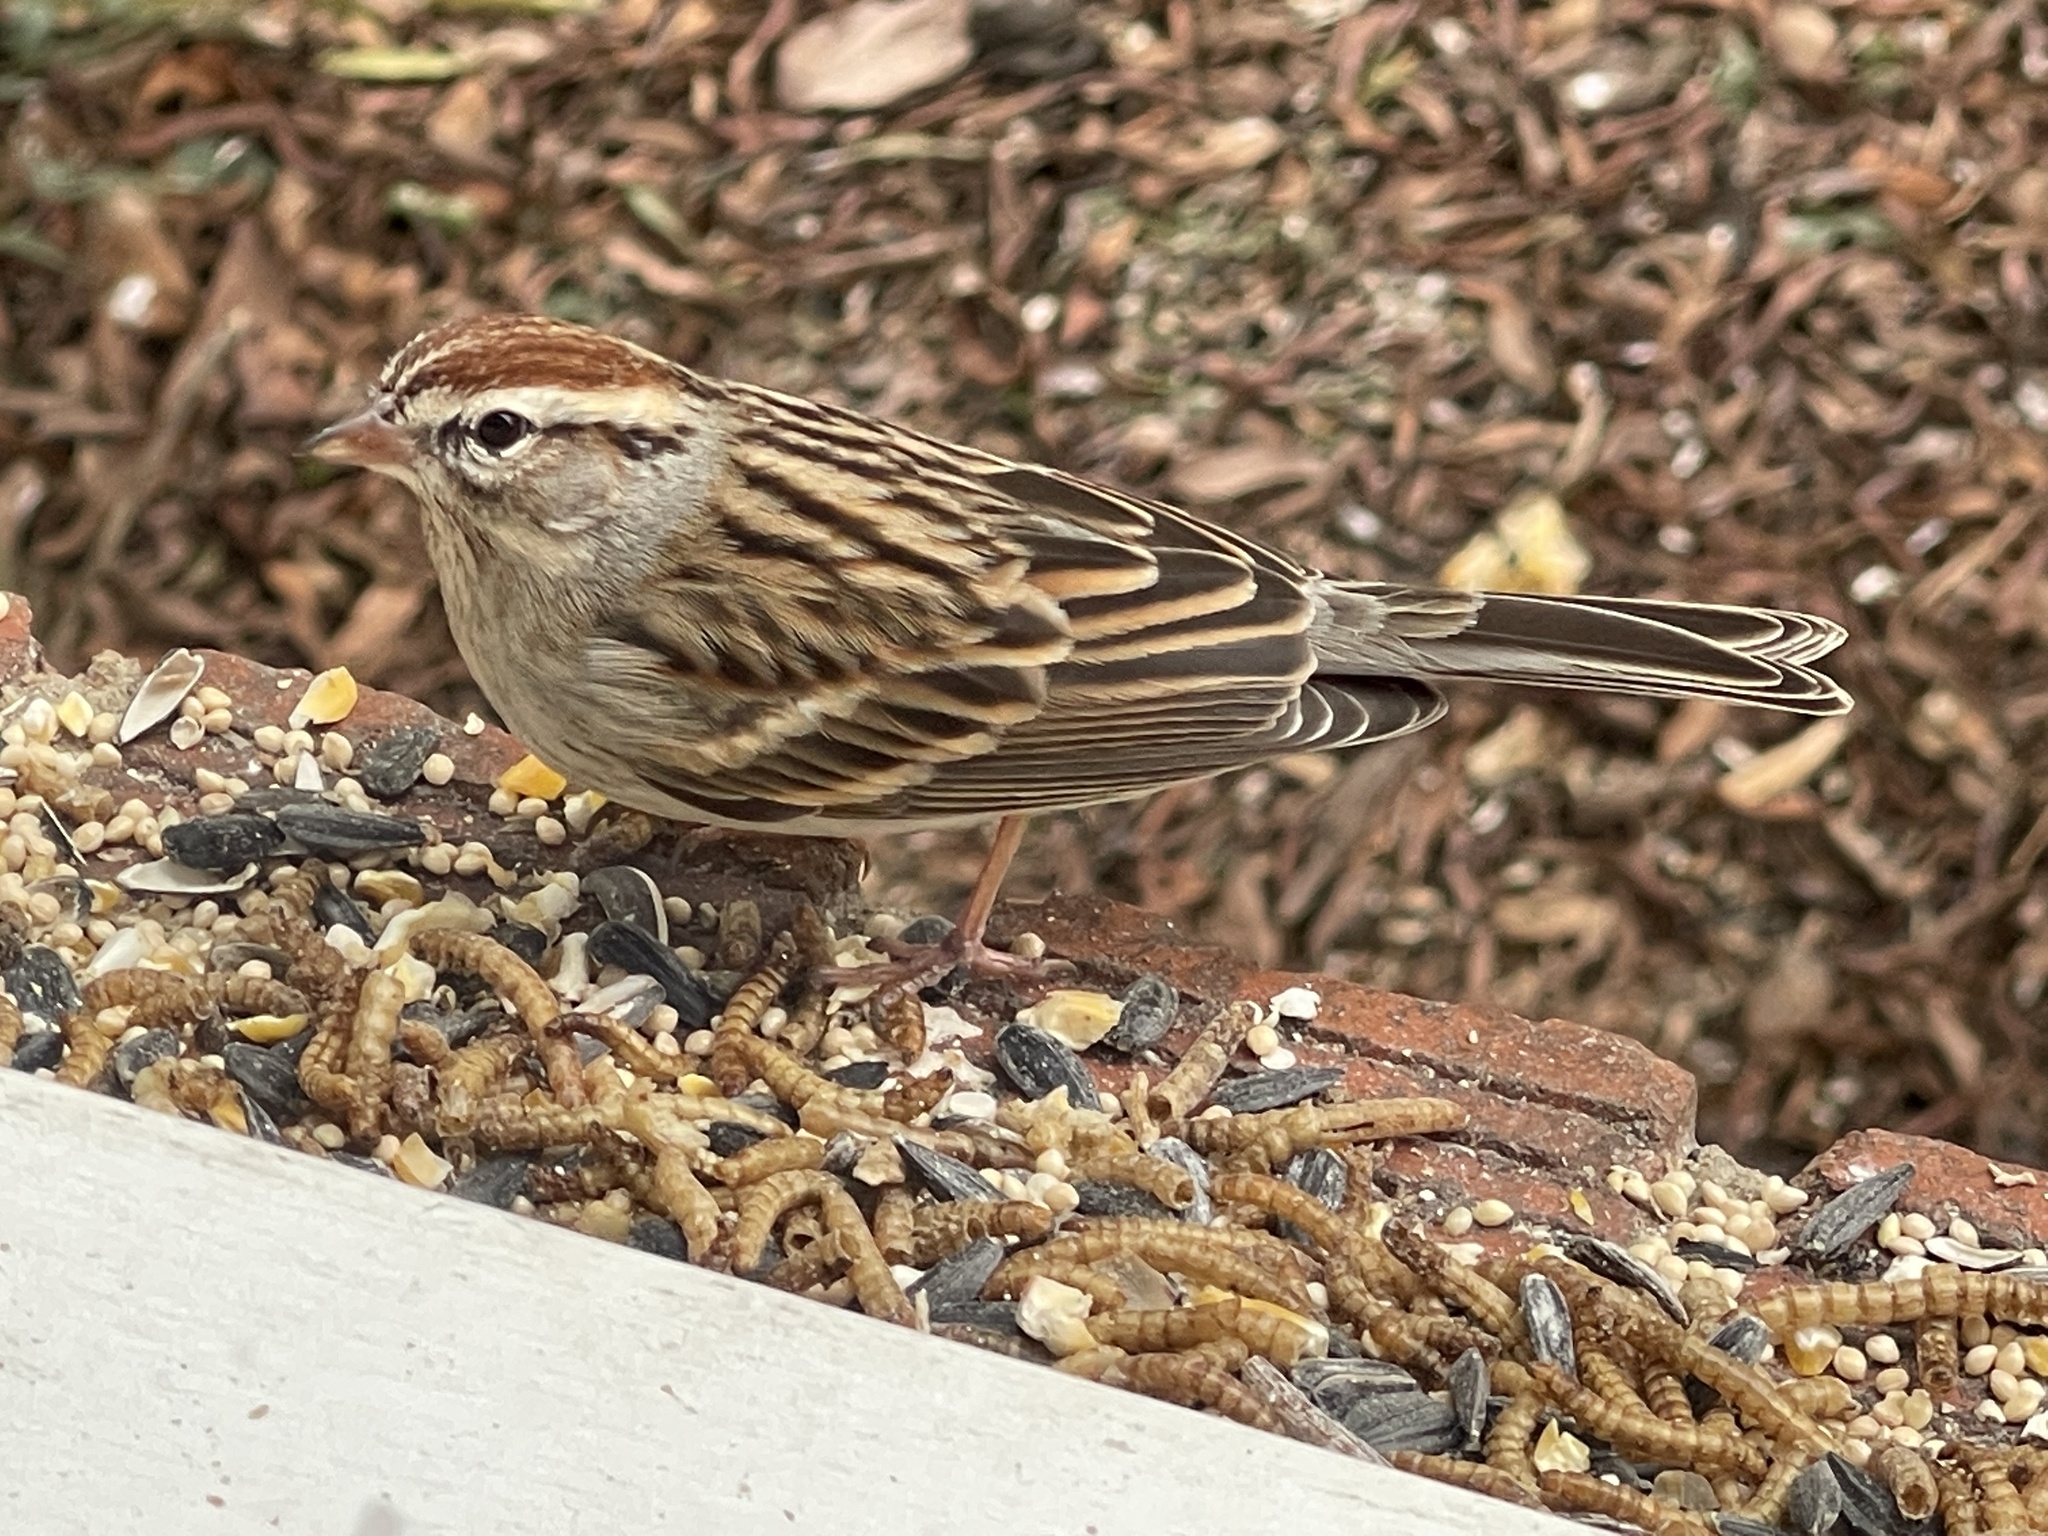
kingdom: Animalia
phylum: Chordata
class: Aves
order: Passeriformes
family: Passerellidae
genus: Spizella
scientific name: Spizella passerina
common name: Chipping sparrow
